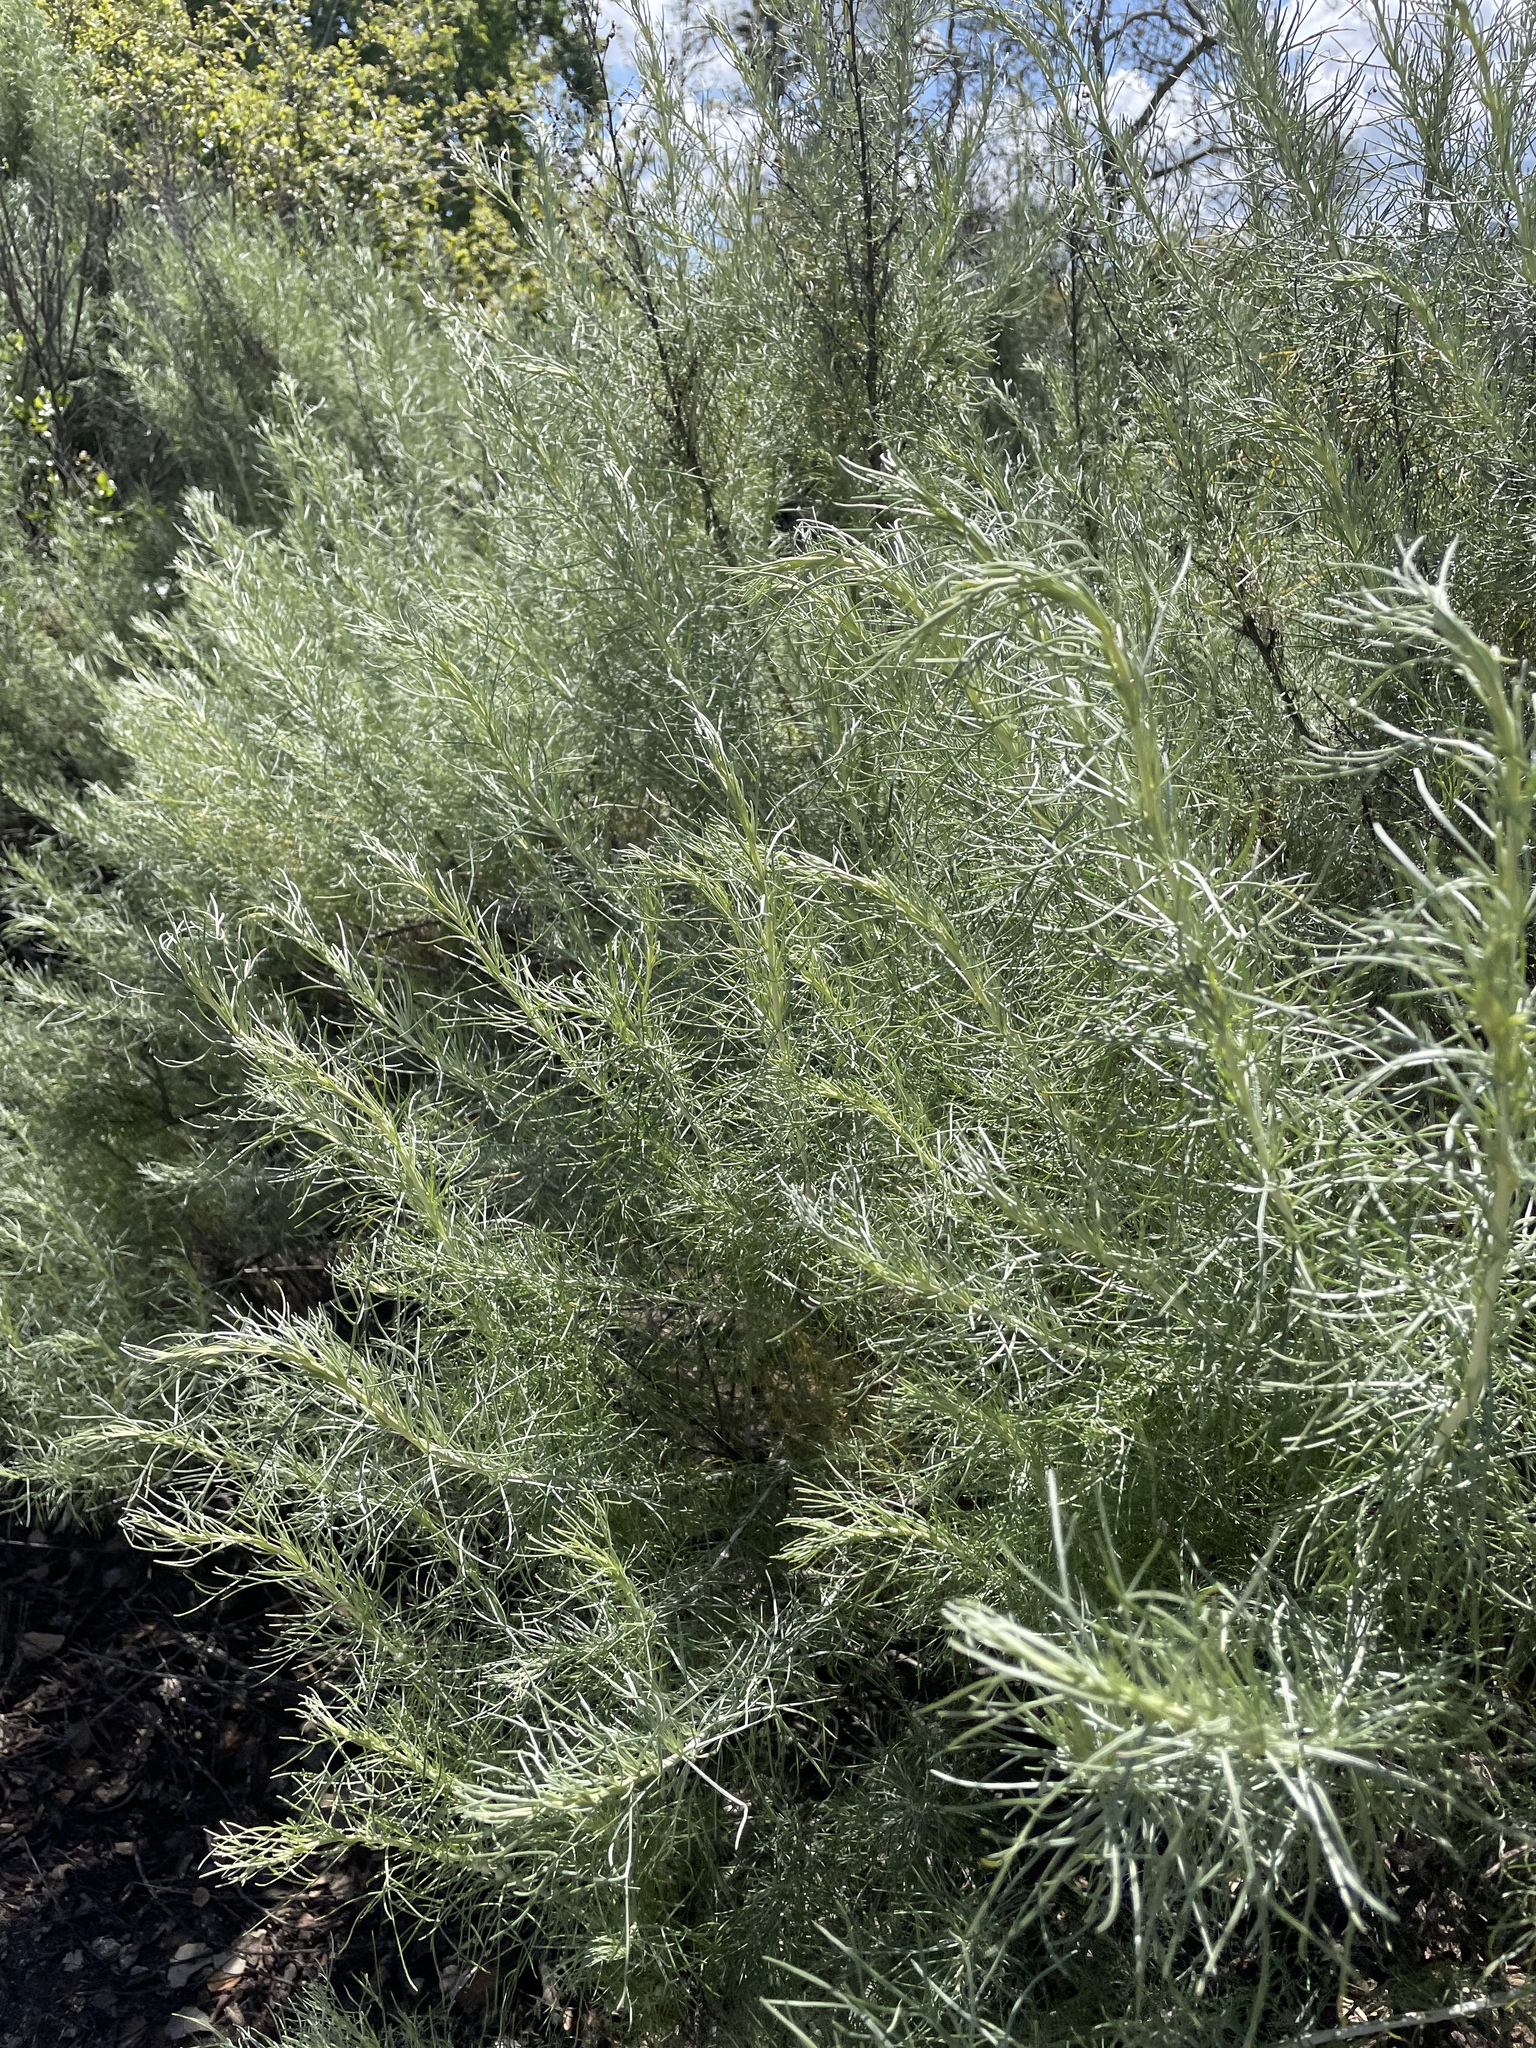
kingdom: Plantae
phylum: Tracheophyta
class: Magnoliopsida
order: Asterales
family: Asteraceae
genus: Artemisia
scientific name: Artemisia californica
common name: California sagebrush
